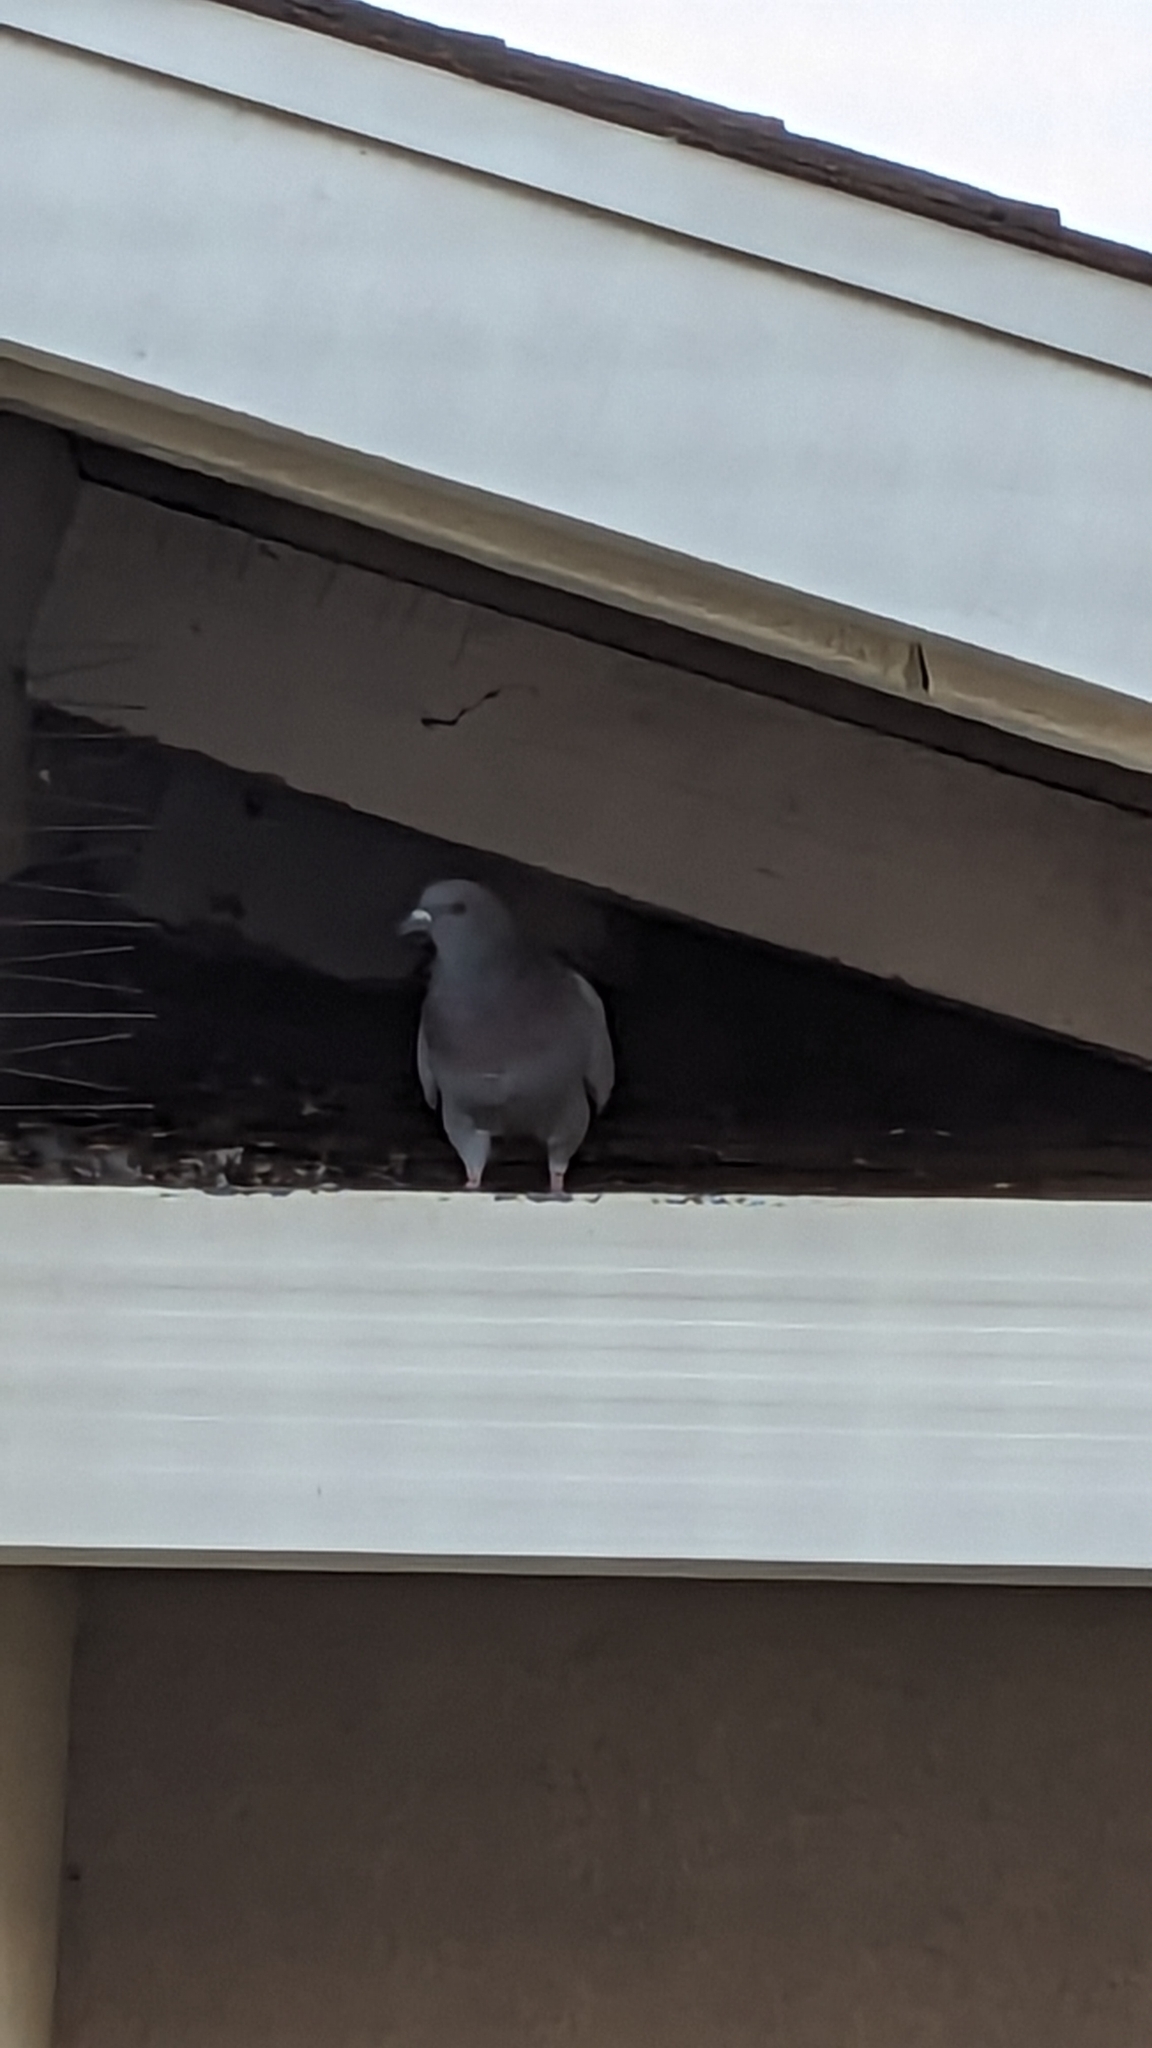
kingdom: Animalia
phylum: Chordata
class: Aves
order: Columbiformes
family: Columbidae
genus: Columba
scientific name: Columba livia
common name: Rock pigeon
